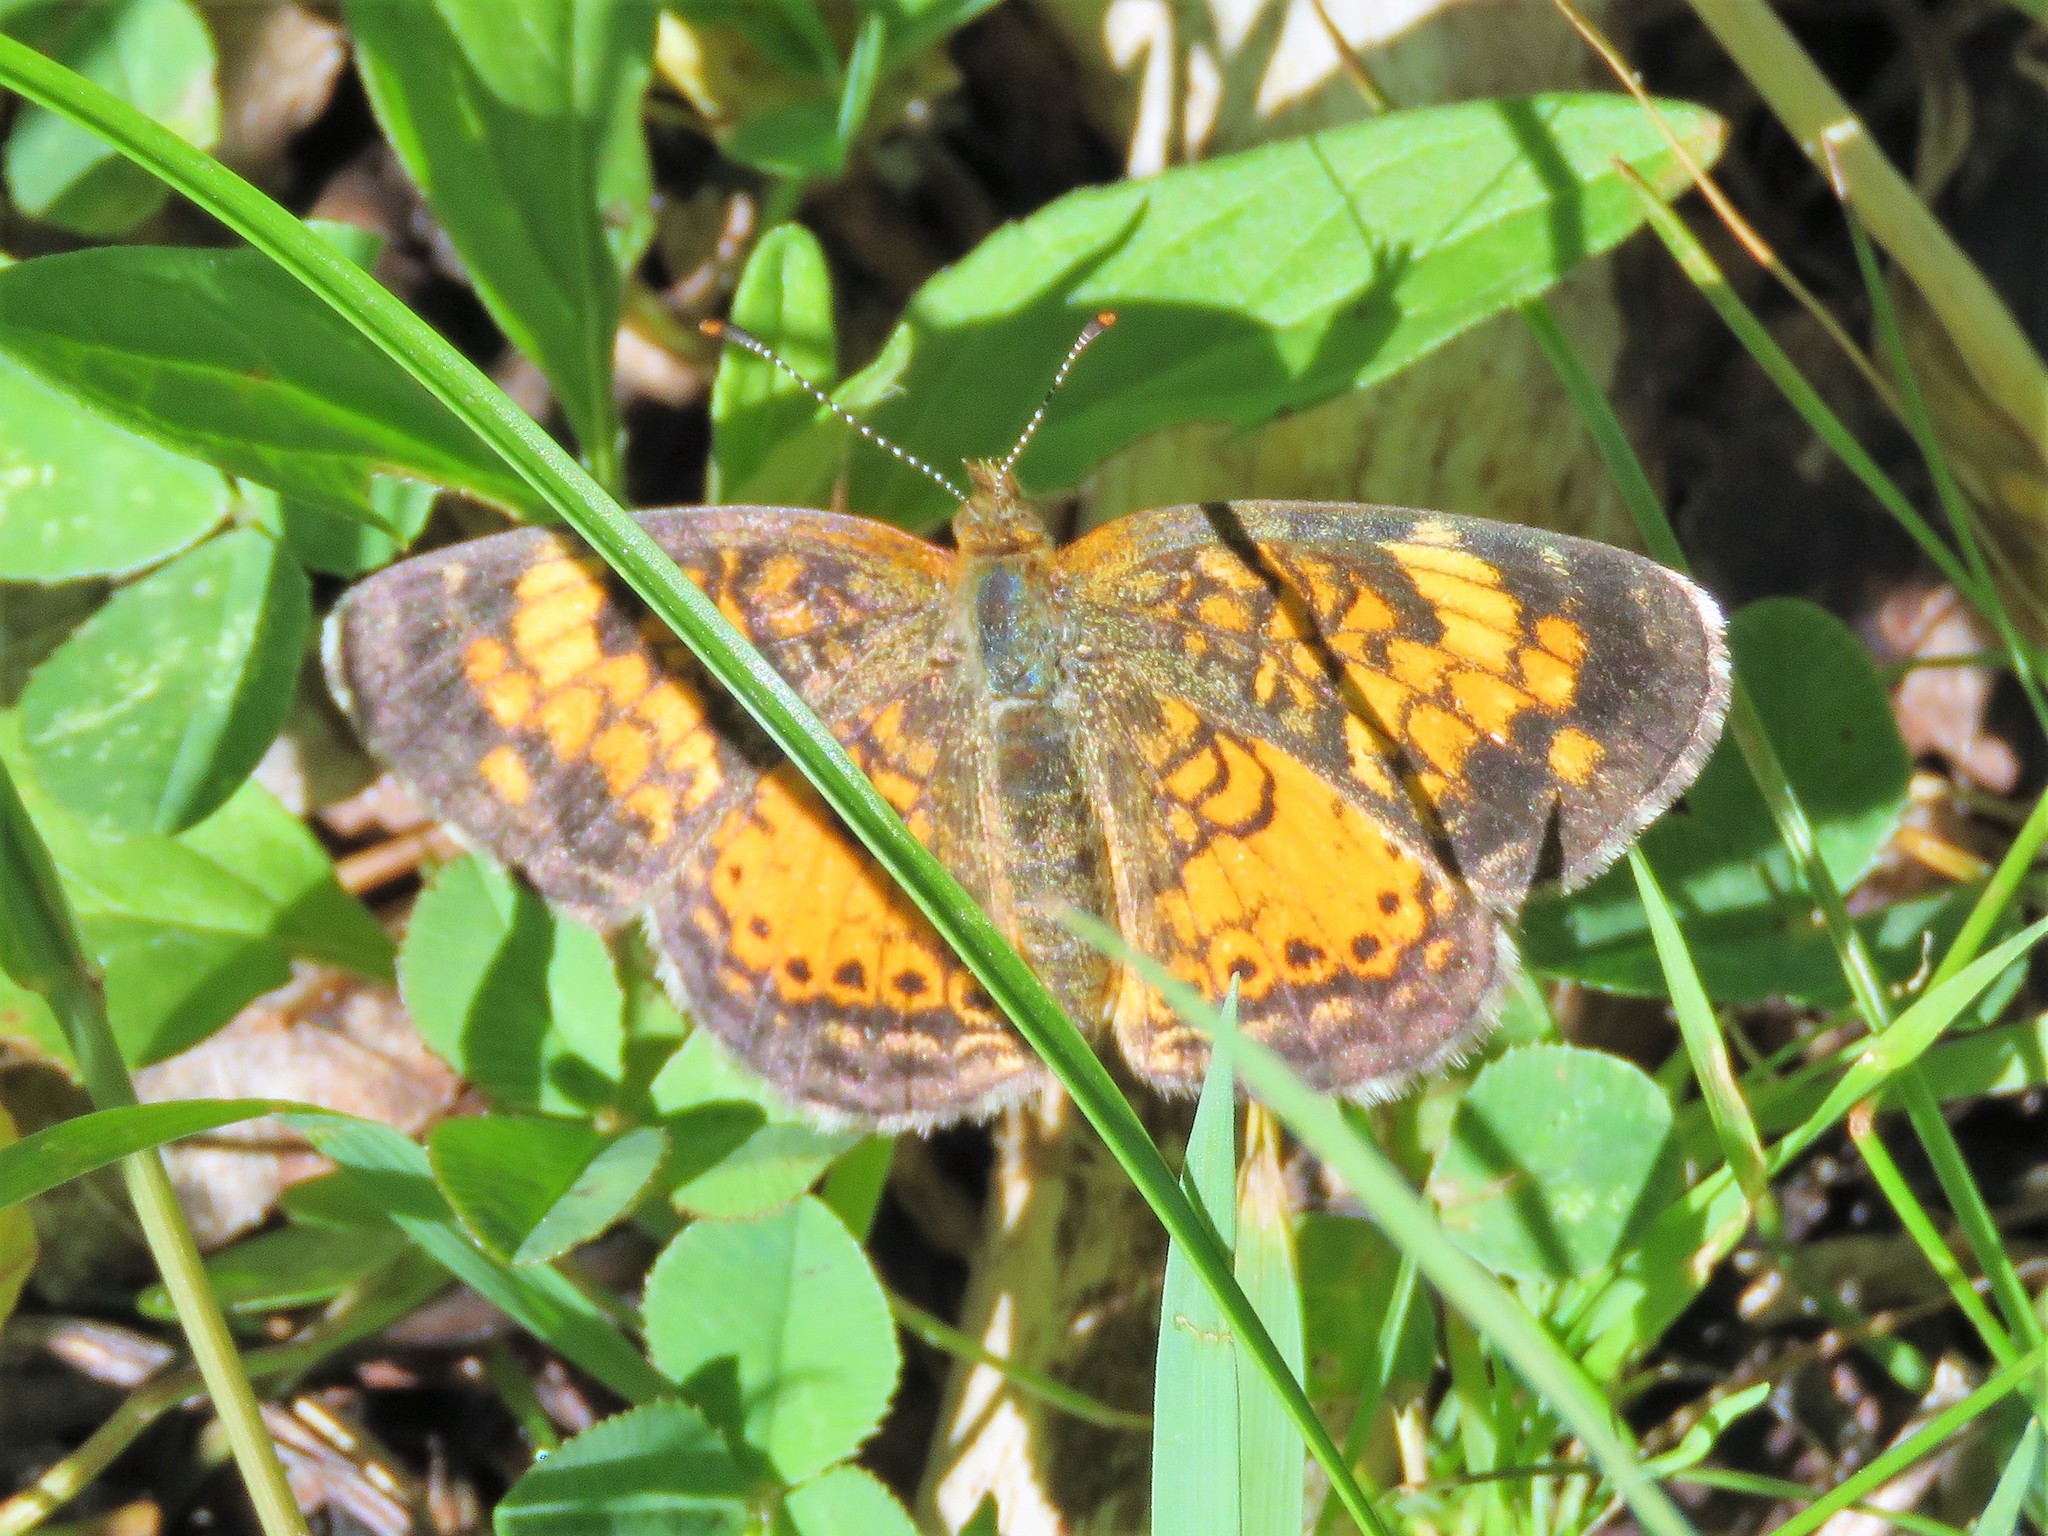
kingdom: Animalia
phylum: Arthropoda
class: Insecta
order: Lepidoptera
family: Nymphalidae
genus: Phyciodes
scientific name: Phyciodes tharos
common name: Pearl crescent
